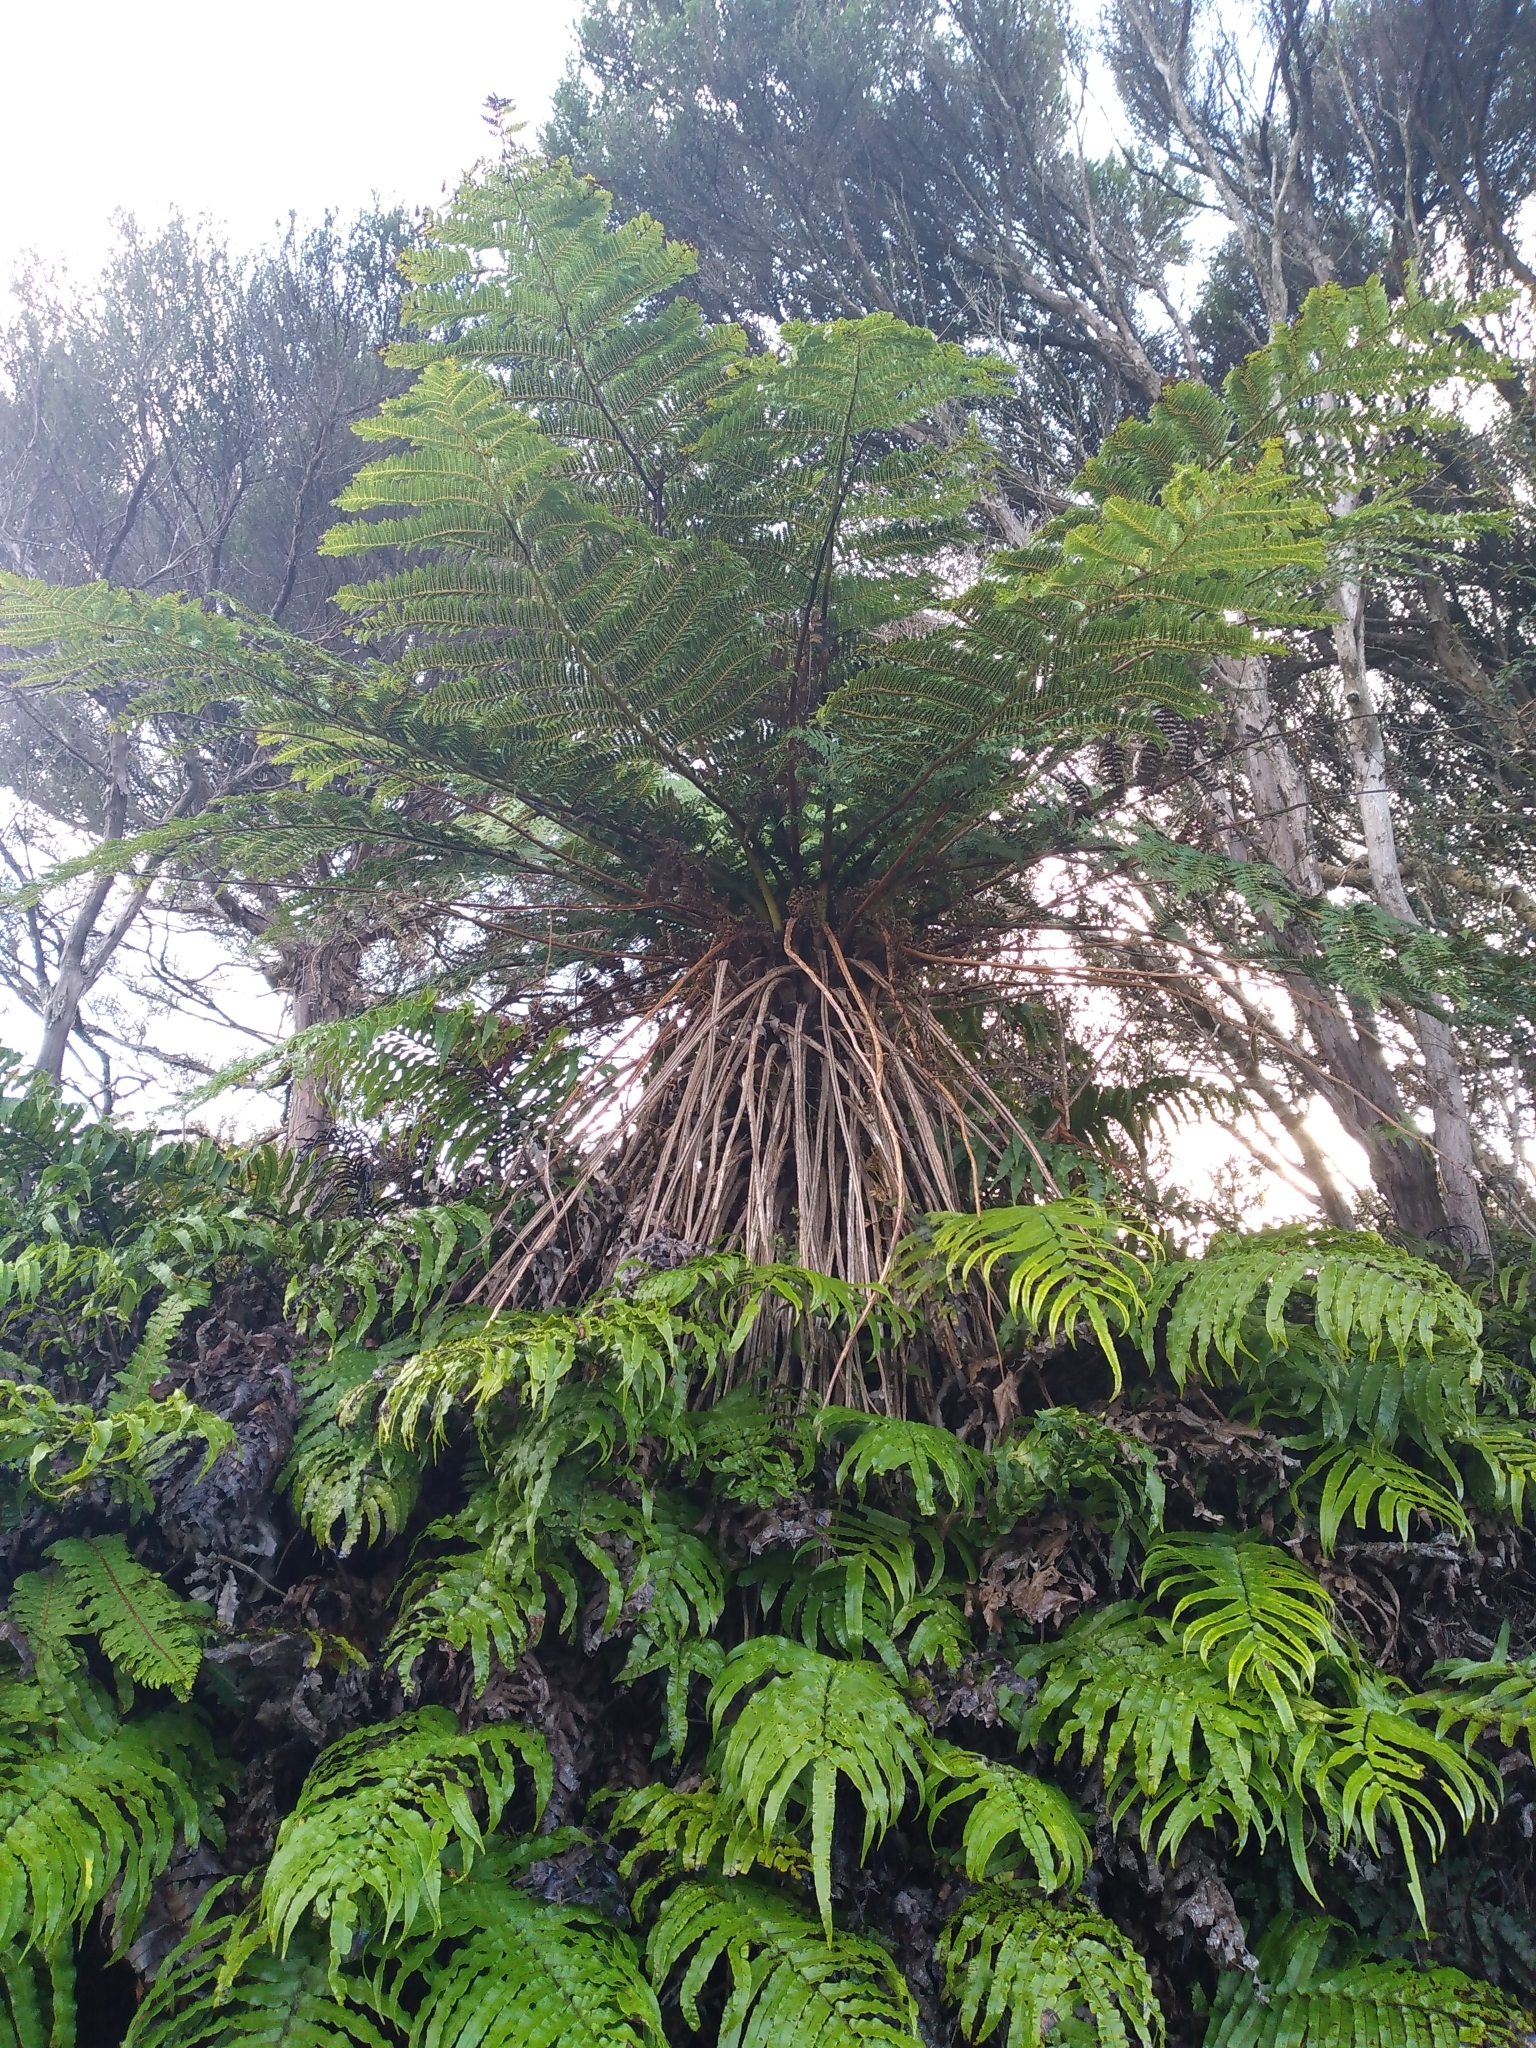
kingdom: Plantae
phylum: Tracheophyta
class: Polypodiopsida
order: Cyatheales
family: Cyatheaceae
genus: Alsophila
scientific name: Alsophila smithii
